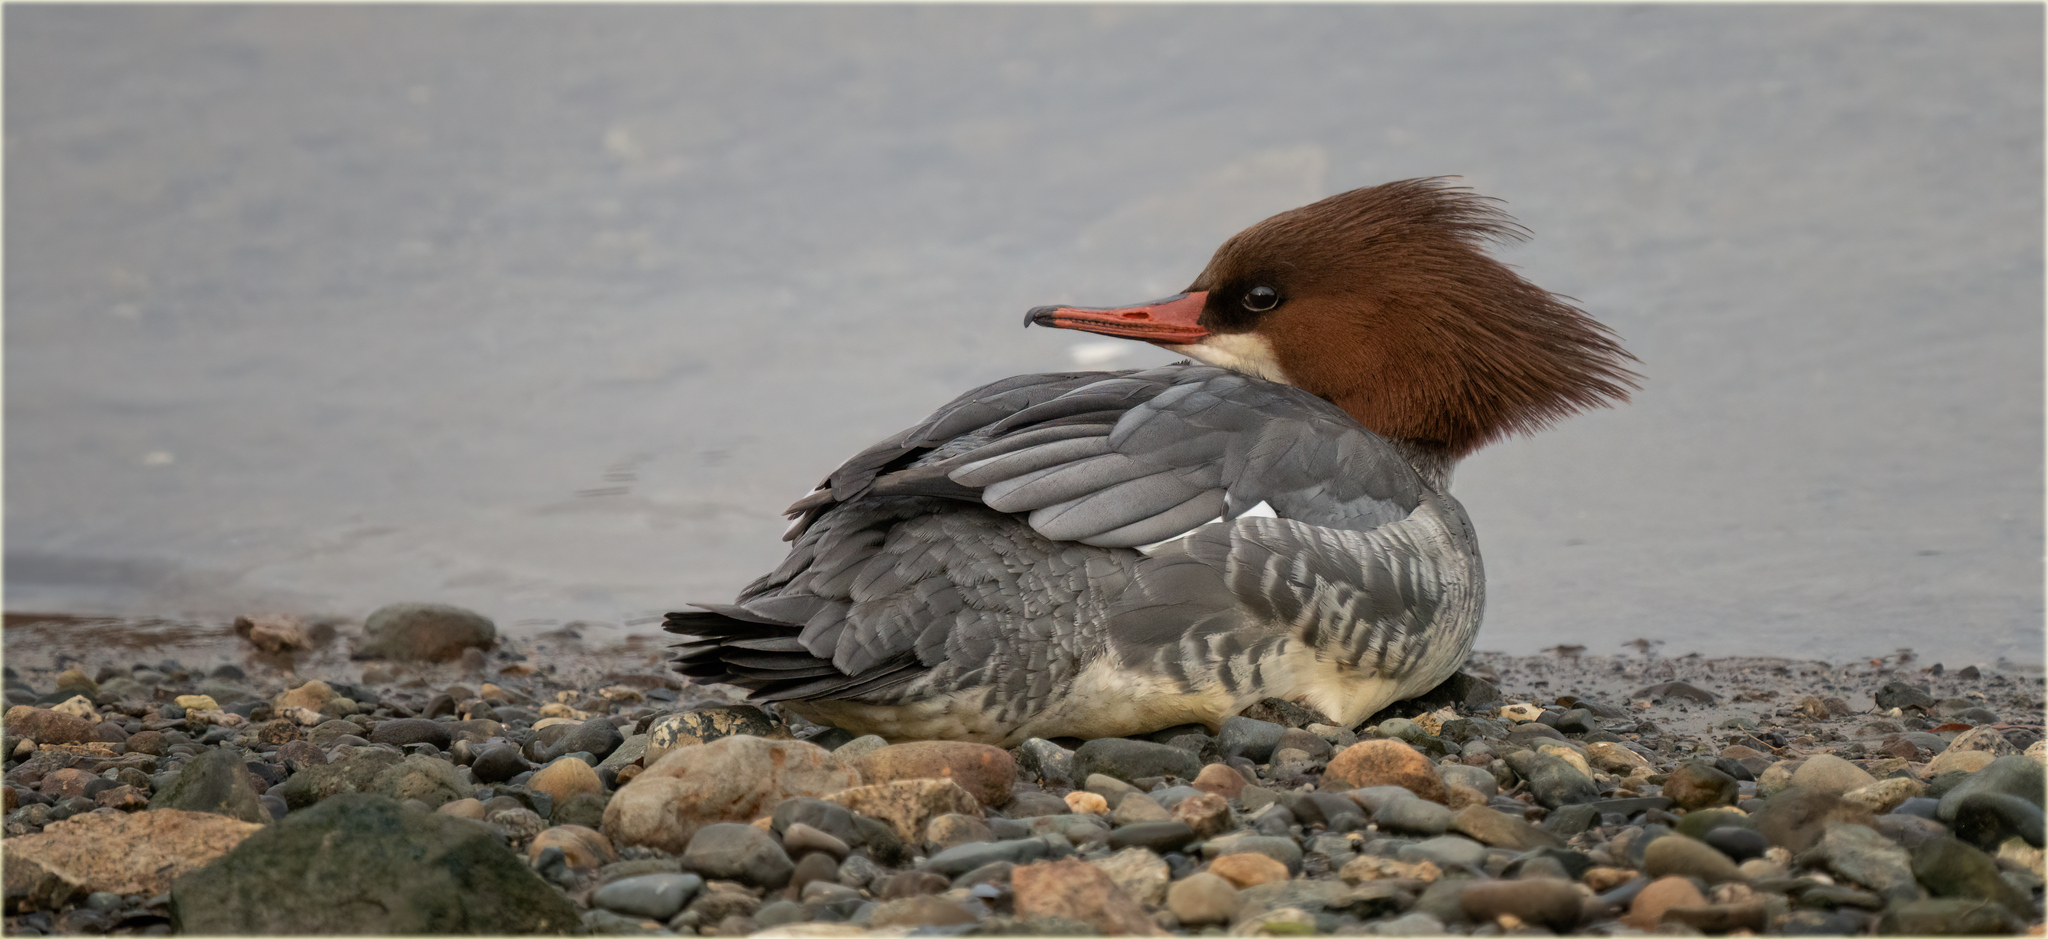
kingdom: Animalia
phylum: Chordata
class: Aves
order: Anseriformes
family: Anatidae
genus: Mergus
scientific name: Mergus merganser
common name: Common merganser
